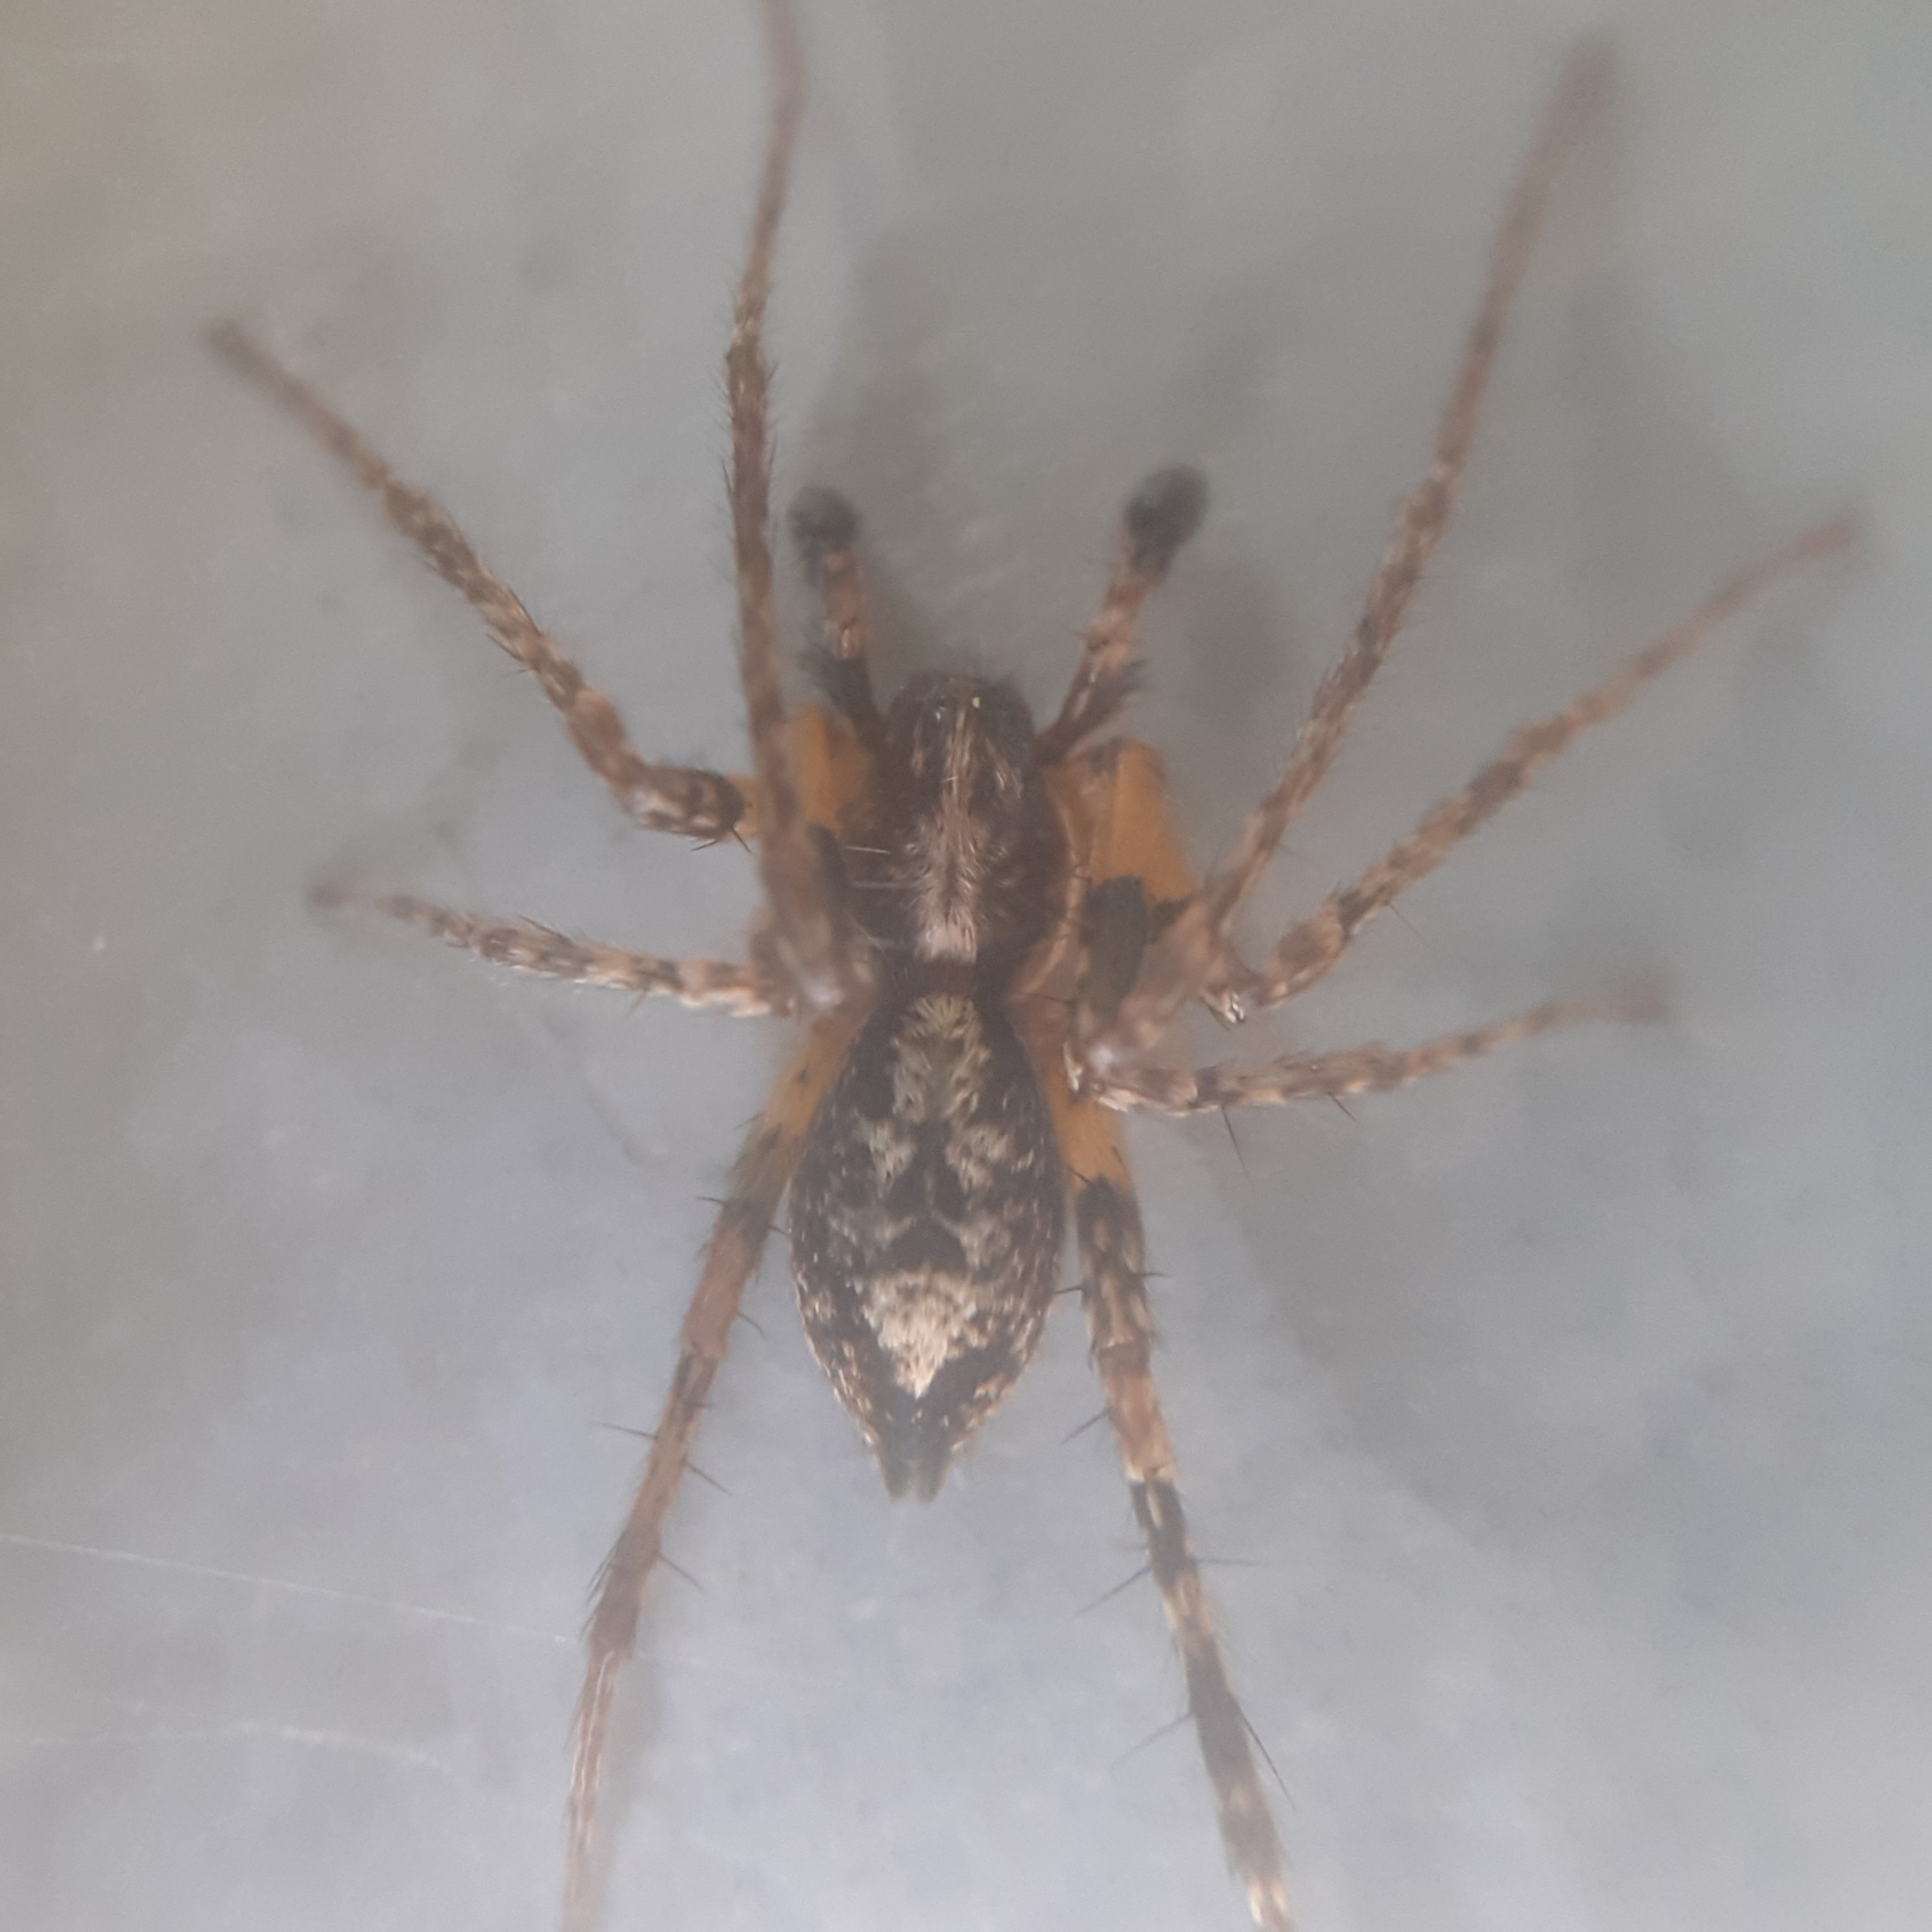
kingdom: Animalia
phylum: Arthropoda
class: Arachnida
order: Araneae
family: Anyphaenidae
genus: Anyphaena
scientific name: Anyphaena accentuata
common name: Buzzing spider
